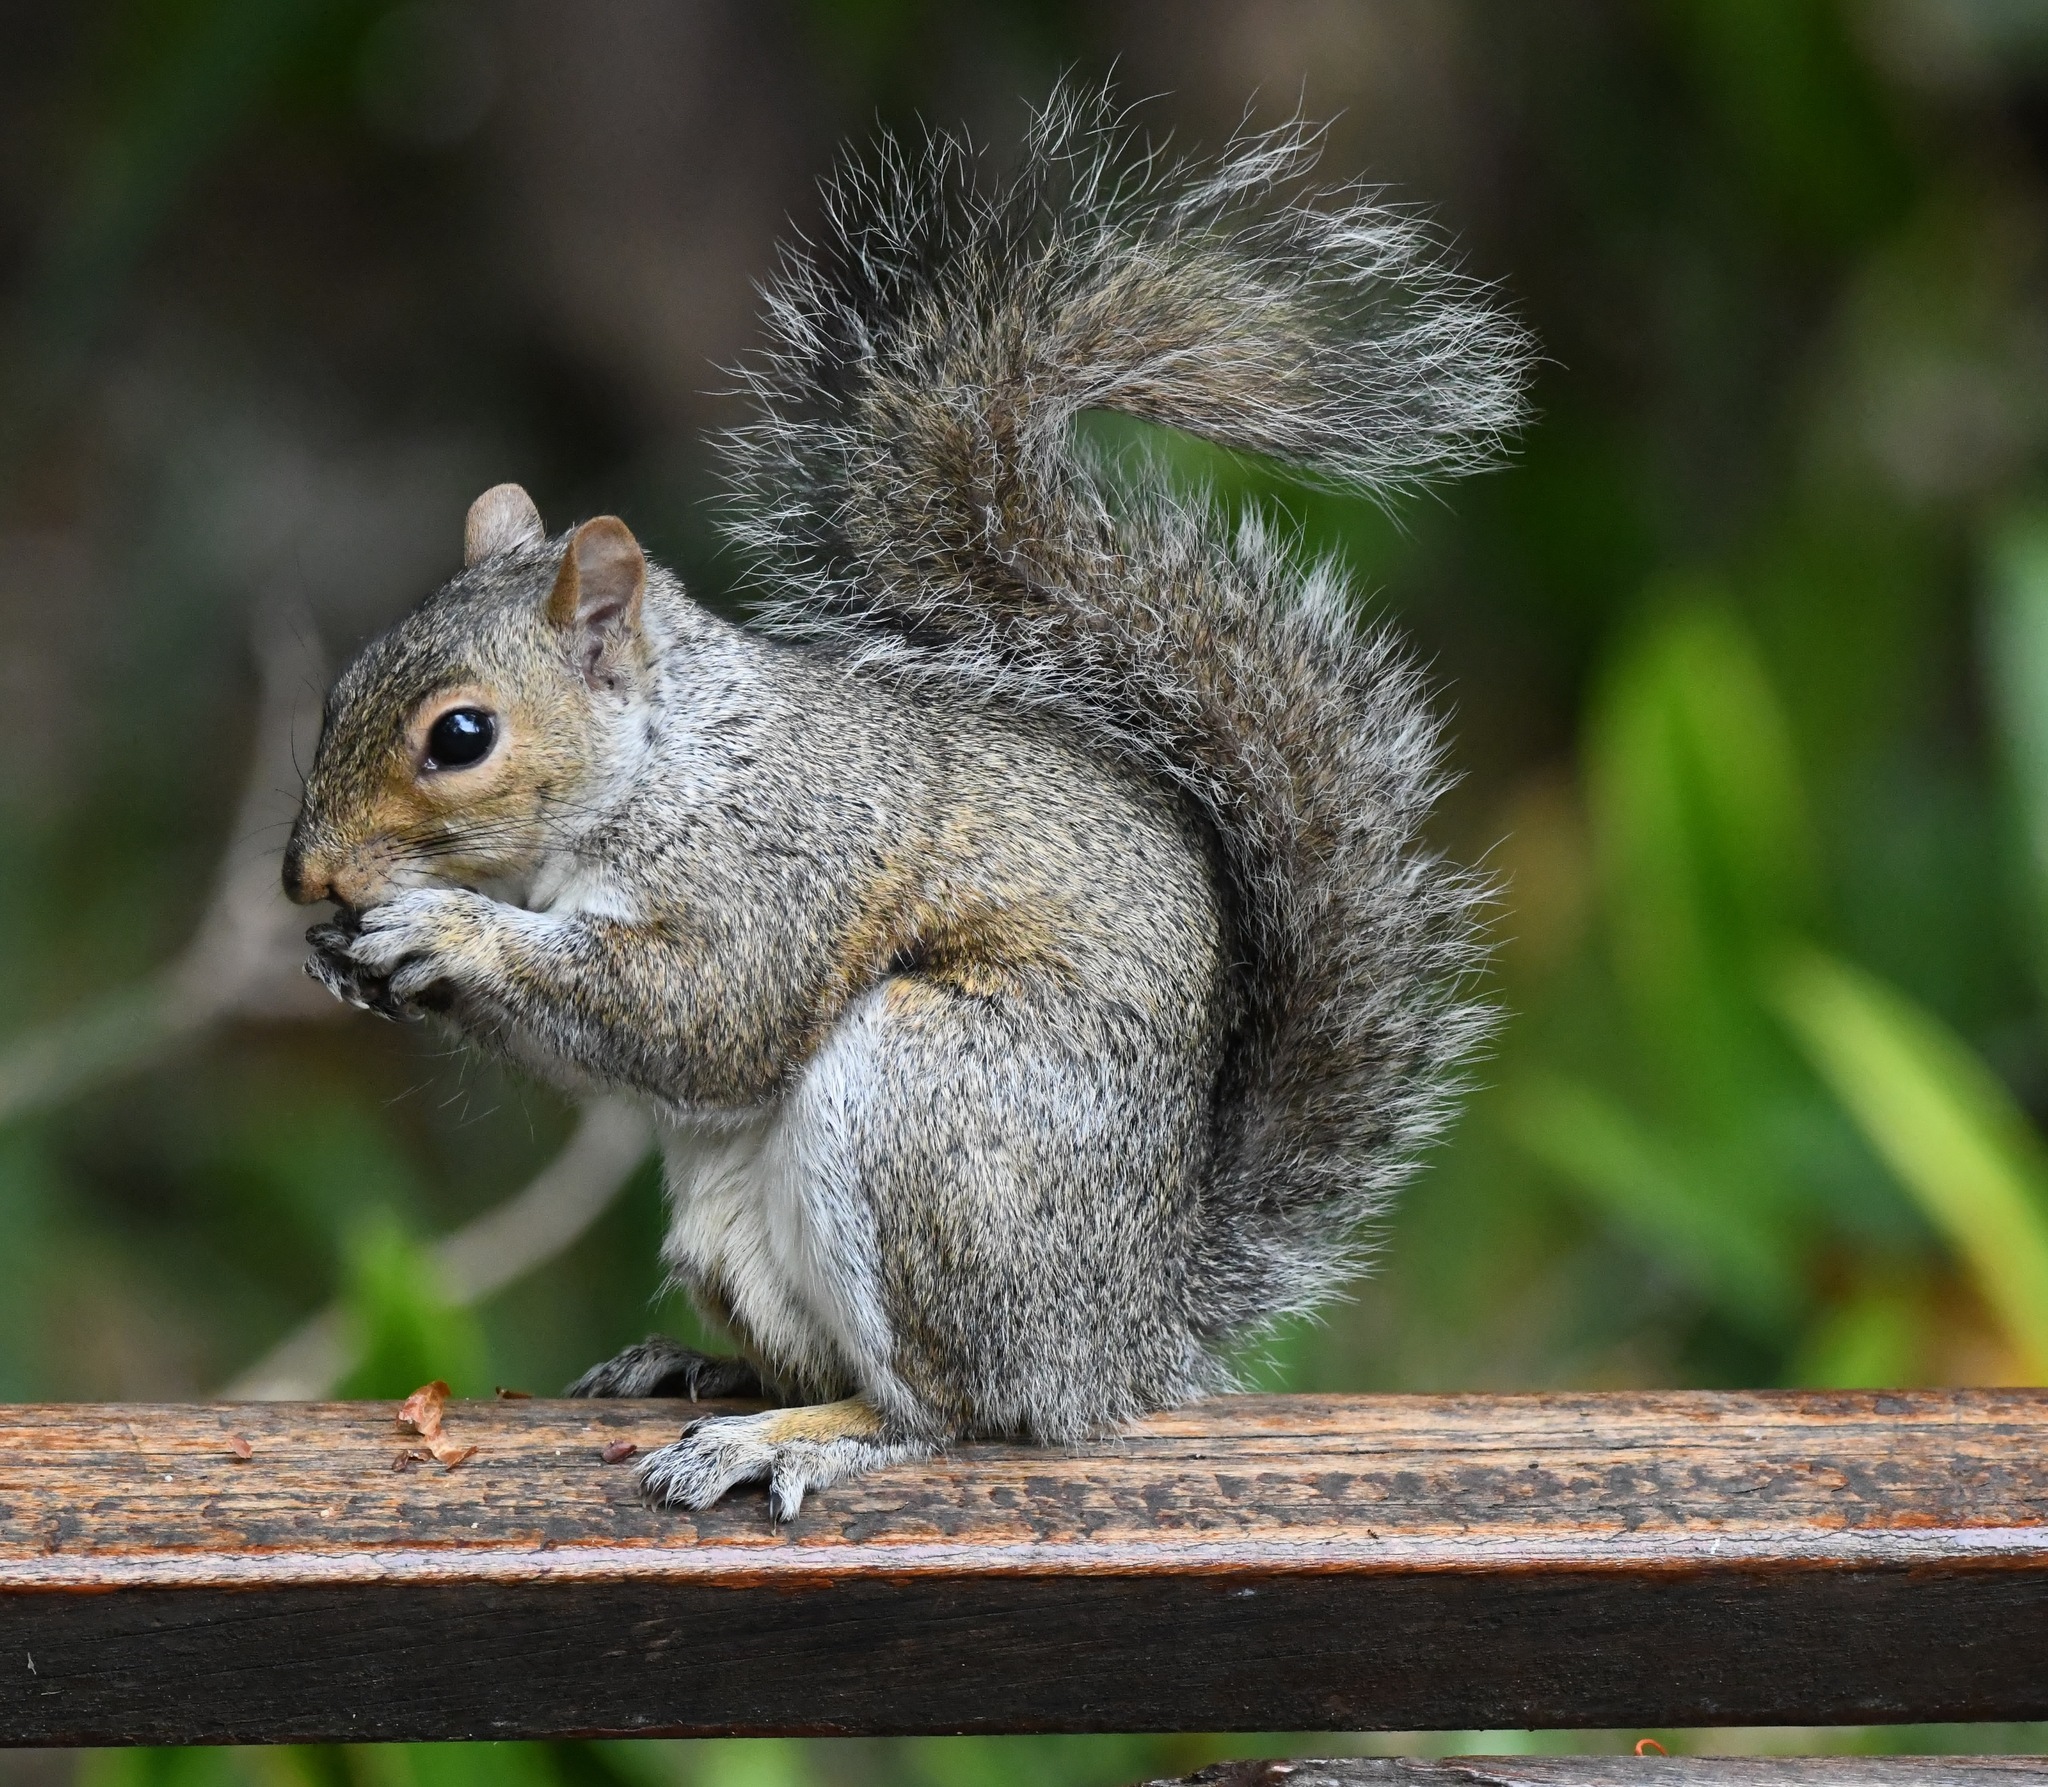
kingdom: Animalia
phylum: Chordata
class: Mammalia
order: Rodentia
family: Sciuridae
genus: Sciurus
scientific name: Sciurus carolinensis
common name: Eastern gray squirrel
